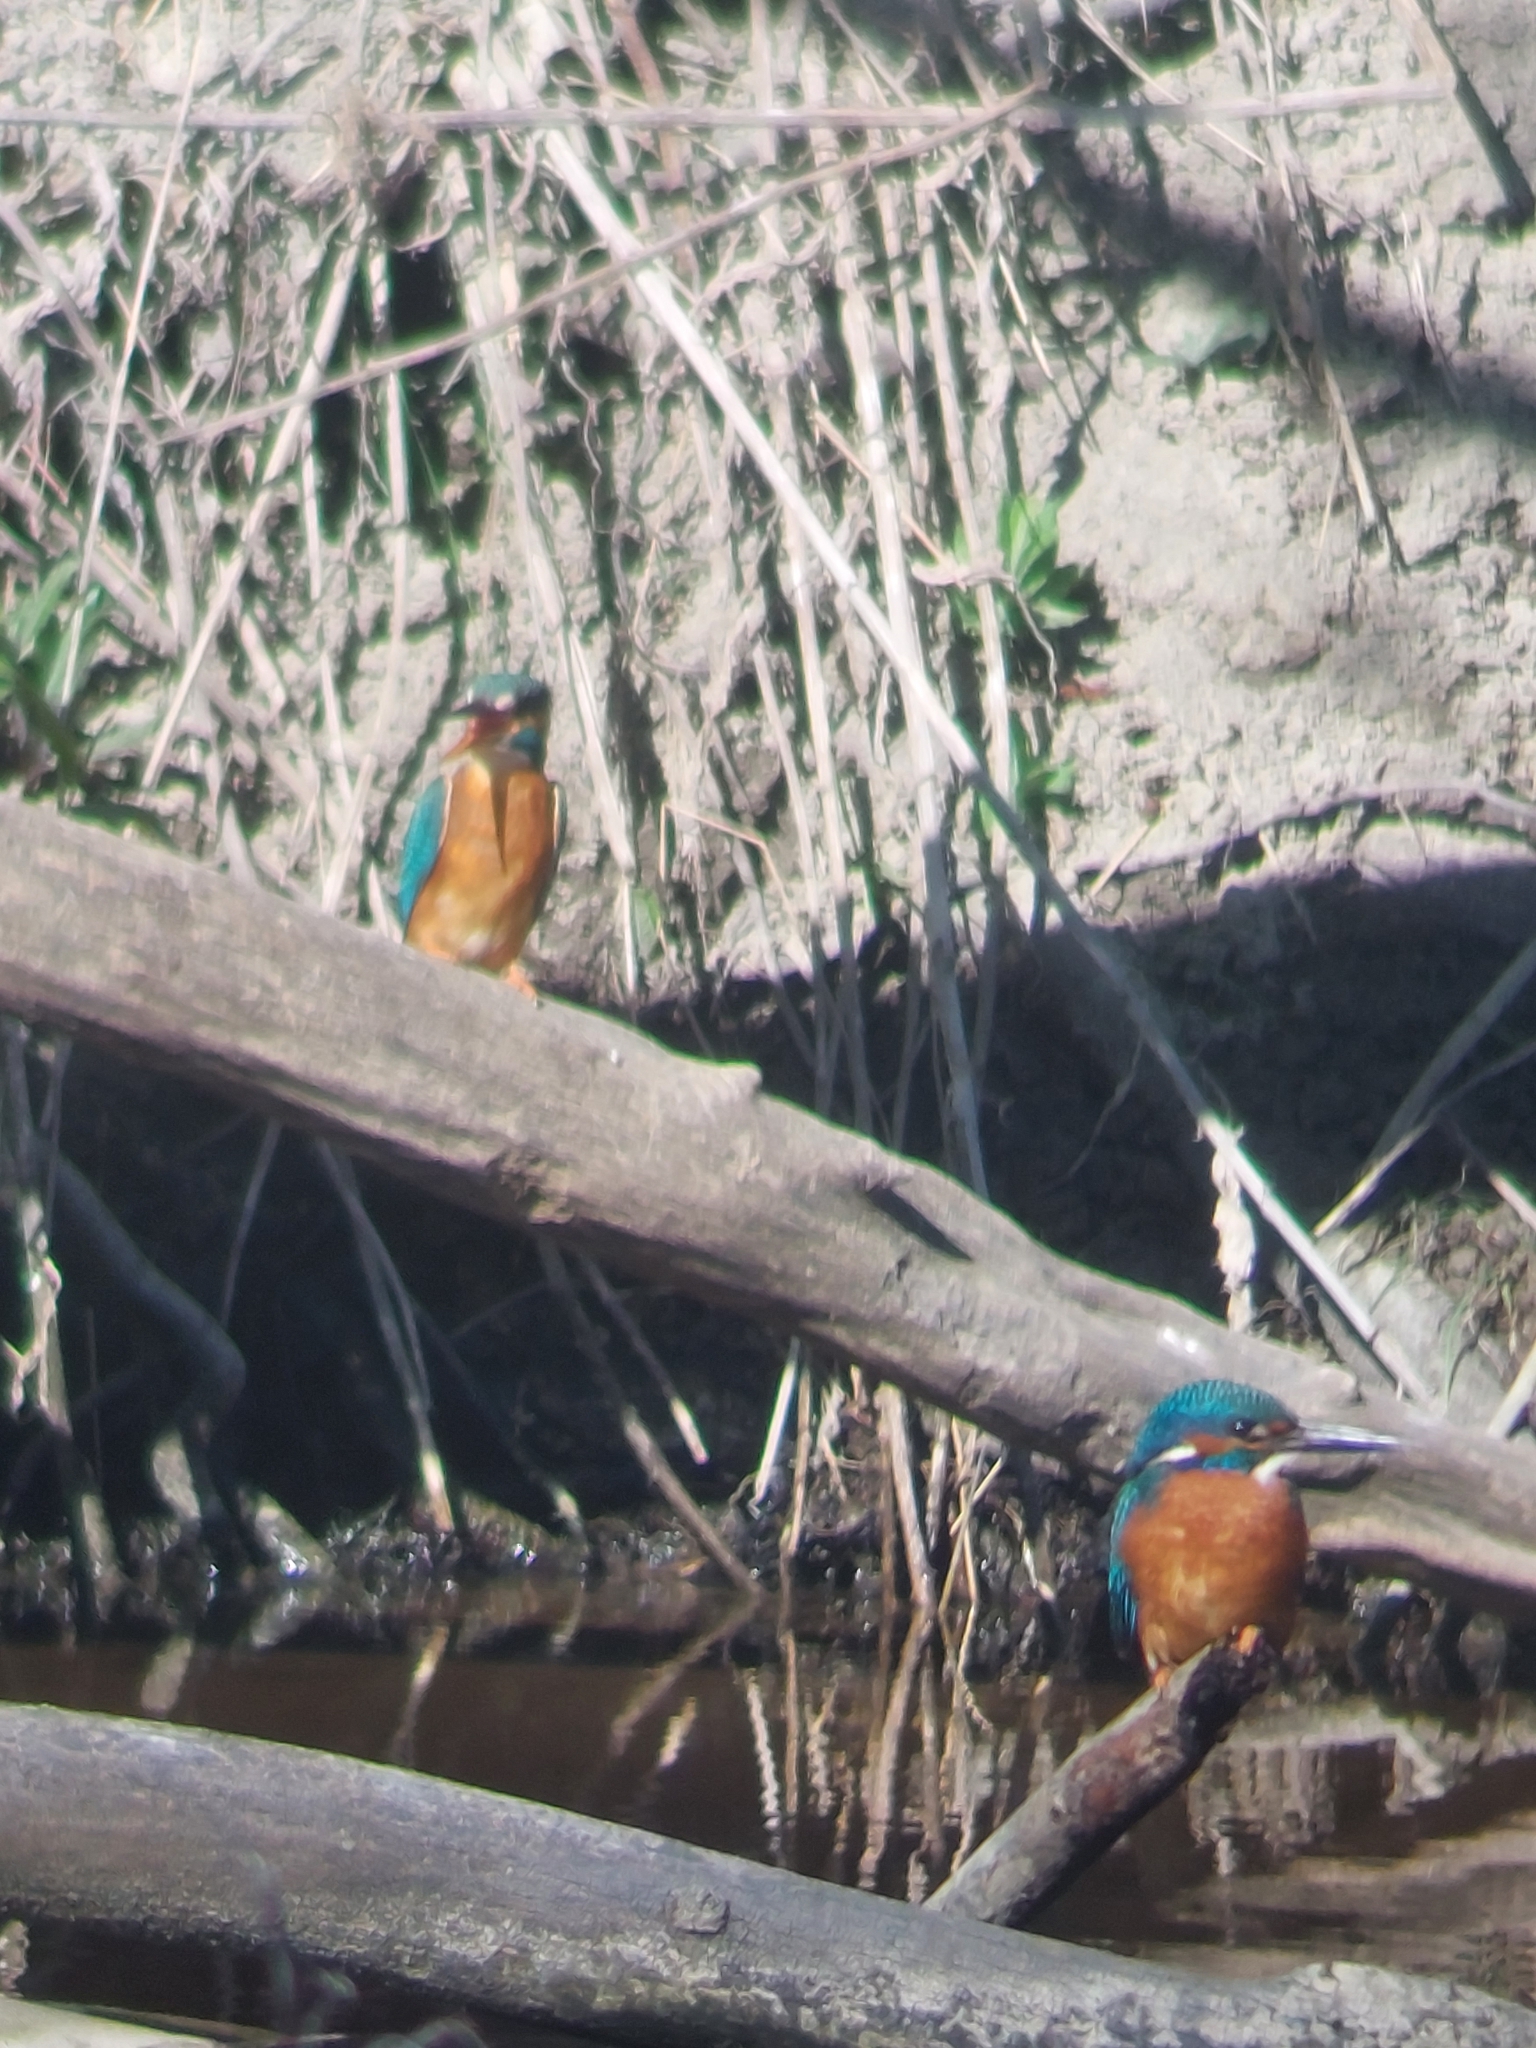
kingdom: Animalia
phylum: Chordata
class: Aves
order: Coraciiformes
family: Alcedinidae
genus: Alcedo
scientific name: Alcedo atthis
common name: Common kingfisher
